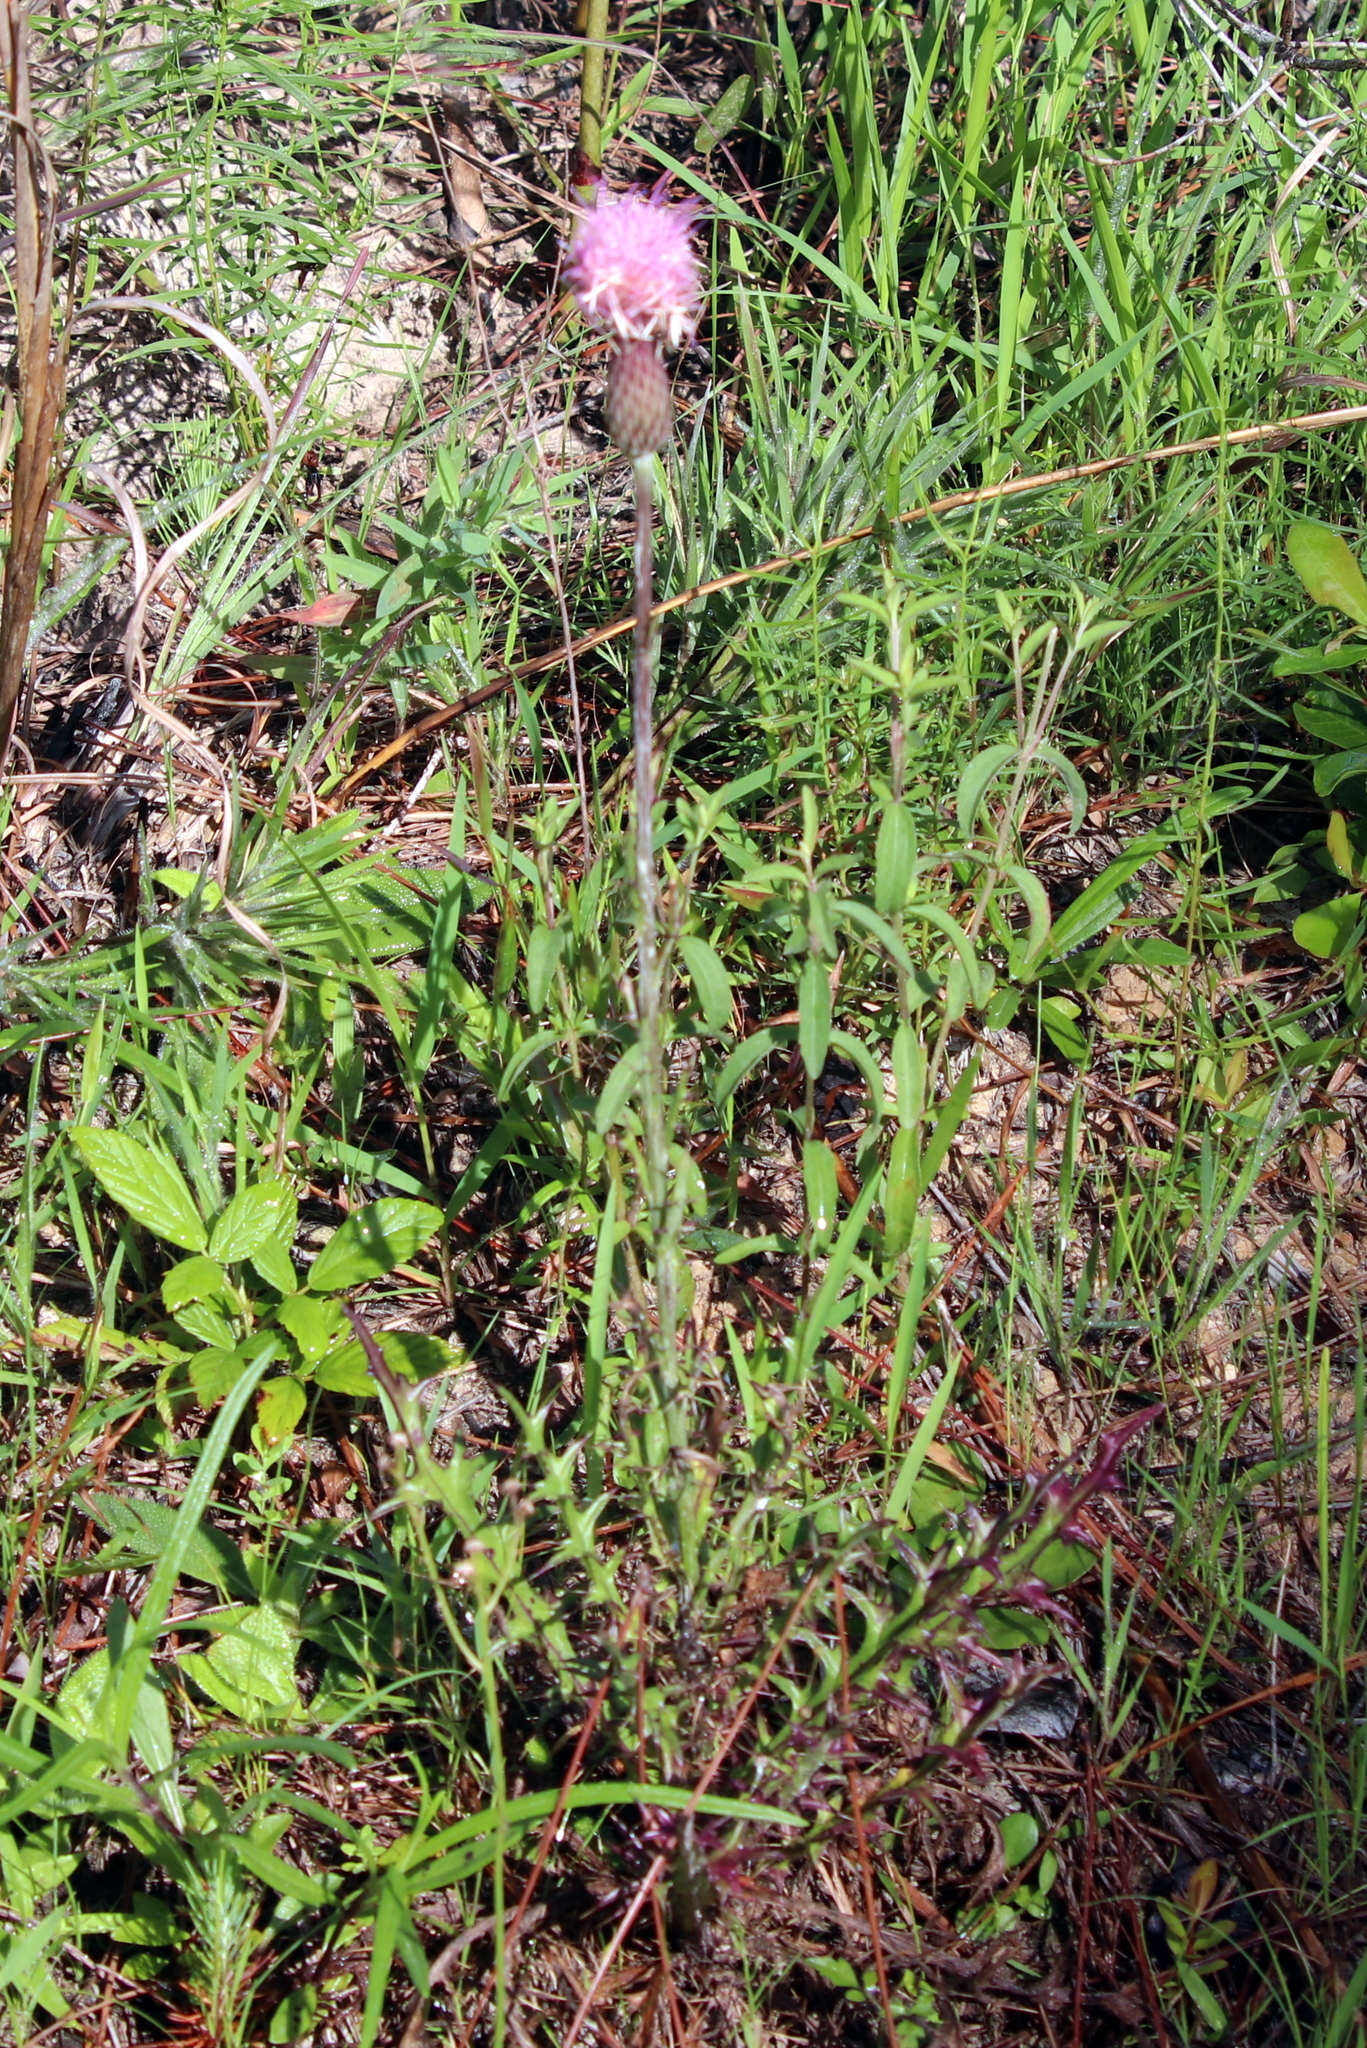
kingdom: Plantae
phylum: Tracheophyta
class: Magnoliopsida
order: Asterales
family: Asteraceae
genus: Cirsium
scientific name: Cirsium lecontei
